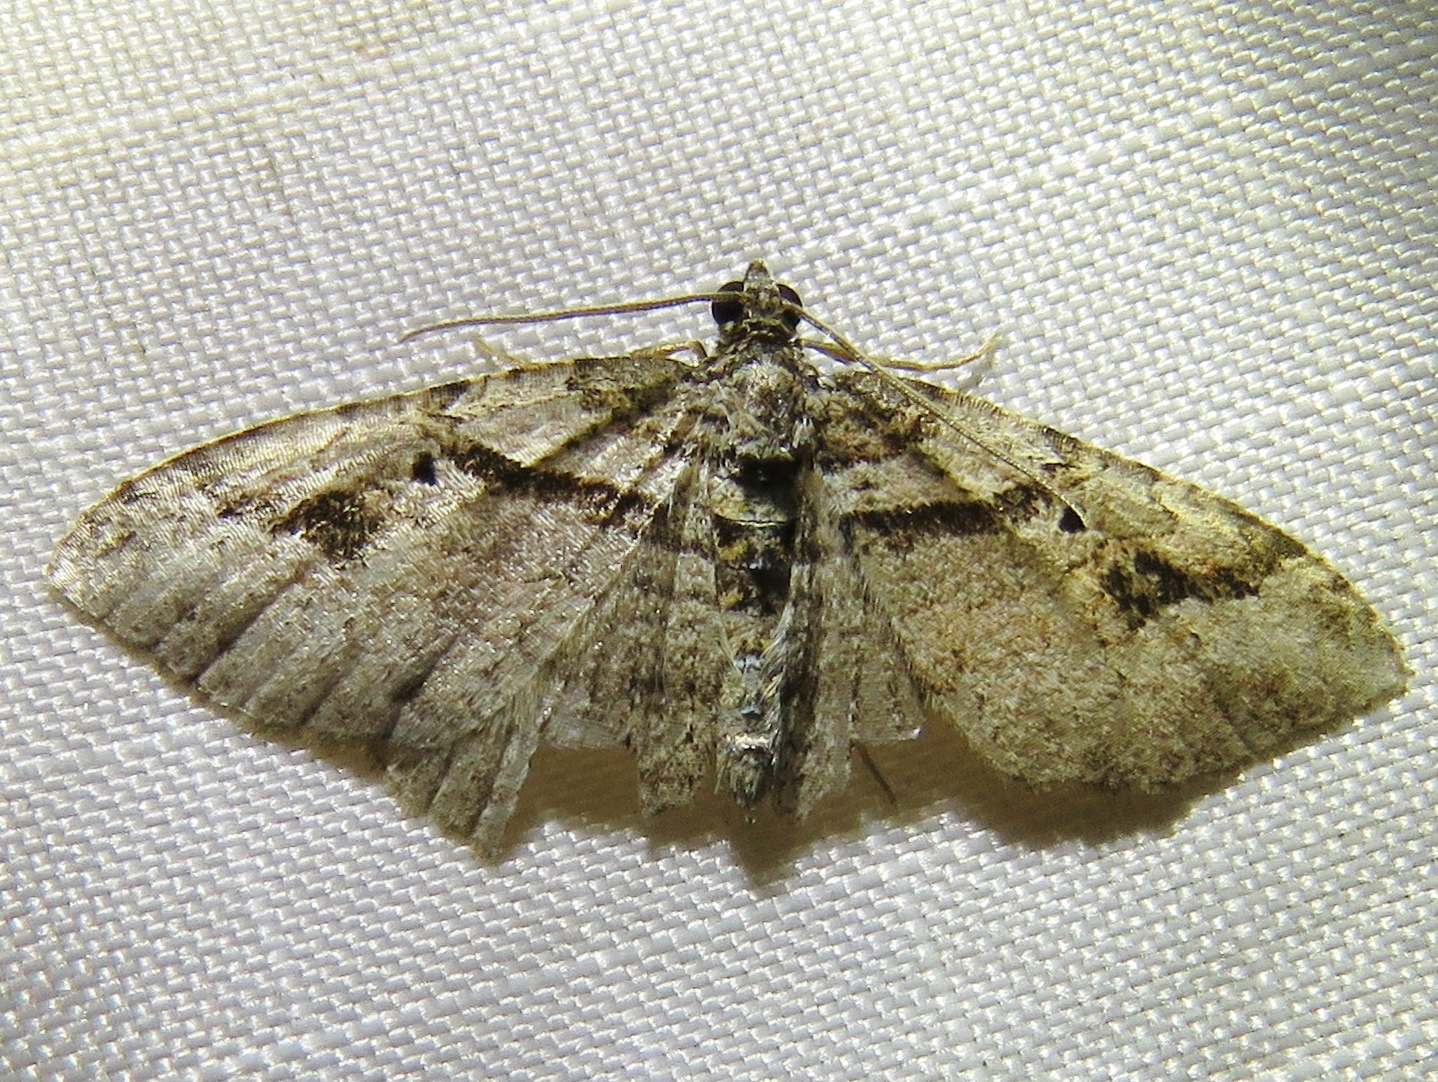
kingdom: Animalia
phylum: Arthropoda
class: Insecta
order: Lepidoptera
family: Geometridae
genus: Costaconvexa
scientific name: Costaconvexa centrostrigaria
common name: Bent-line carpet
